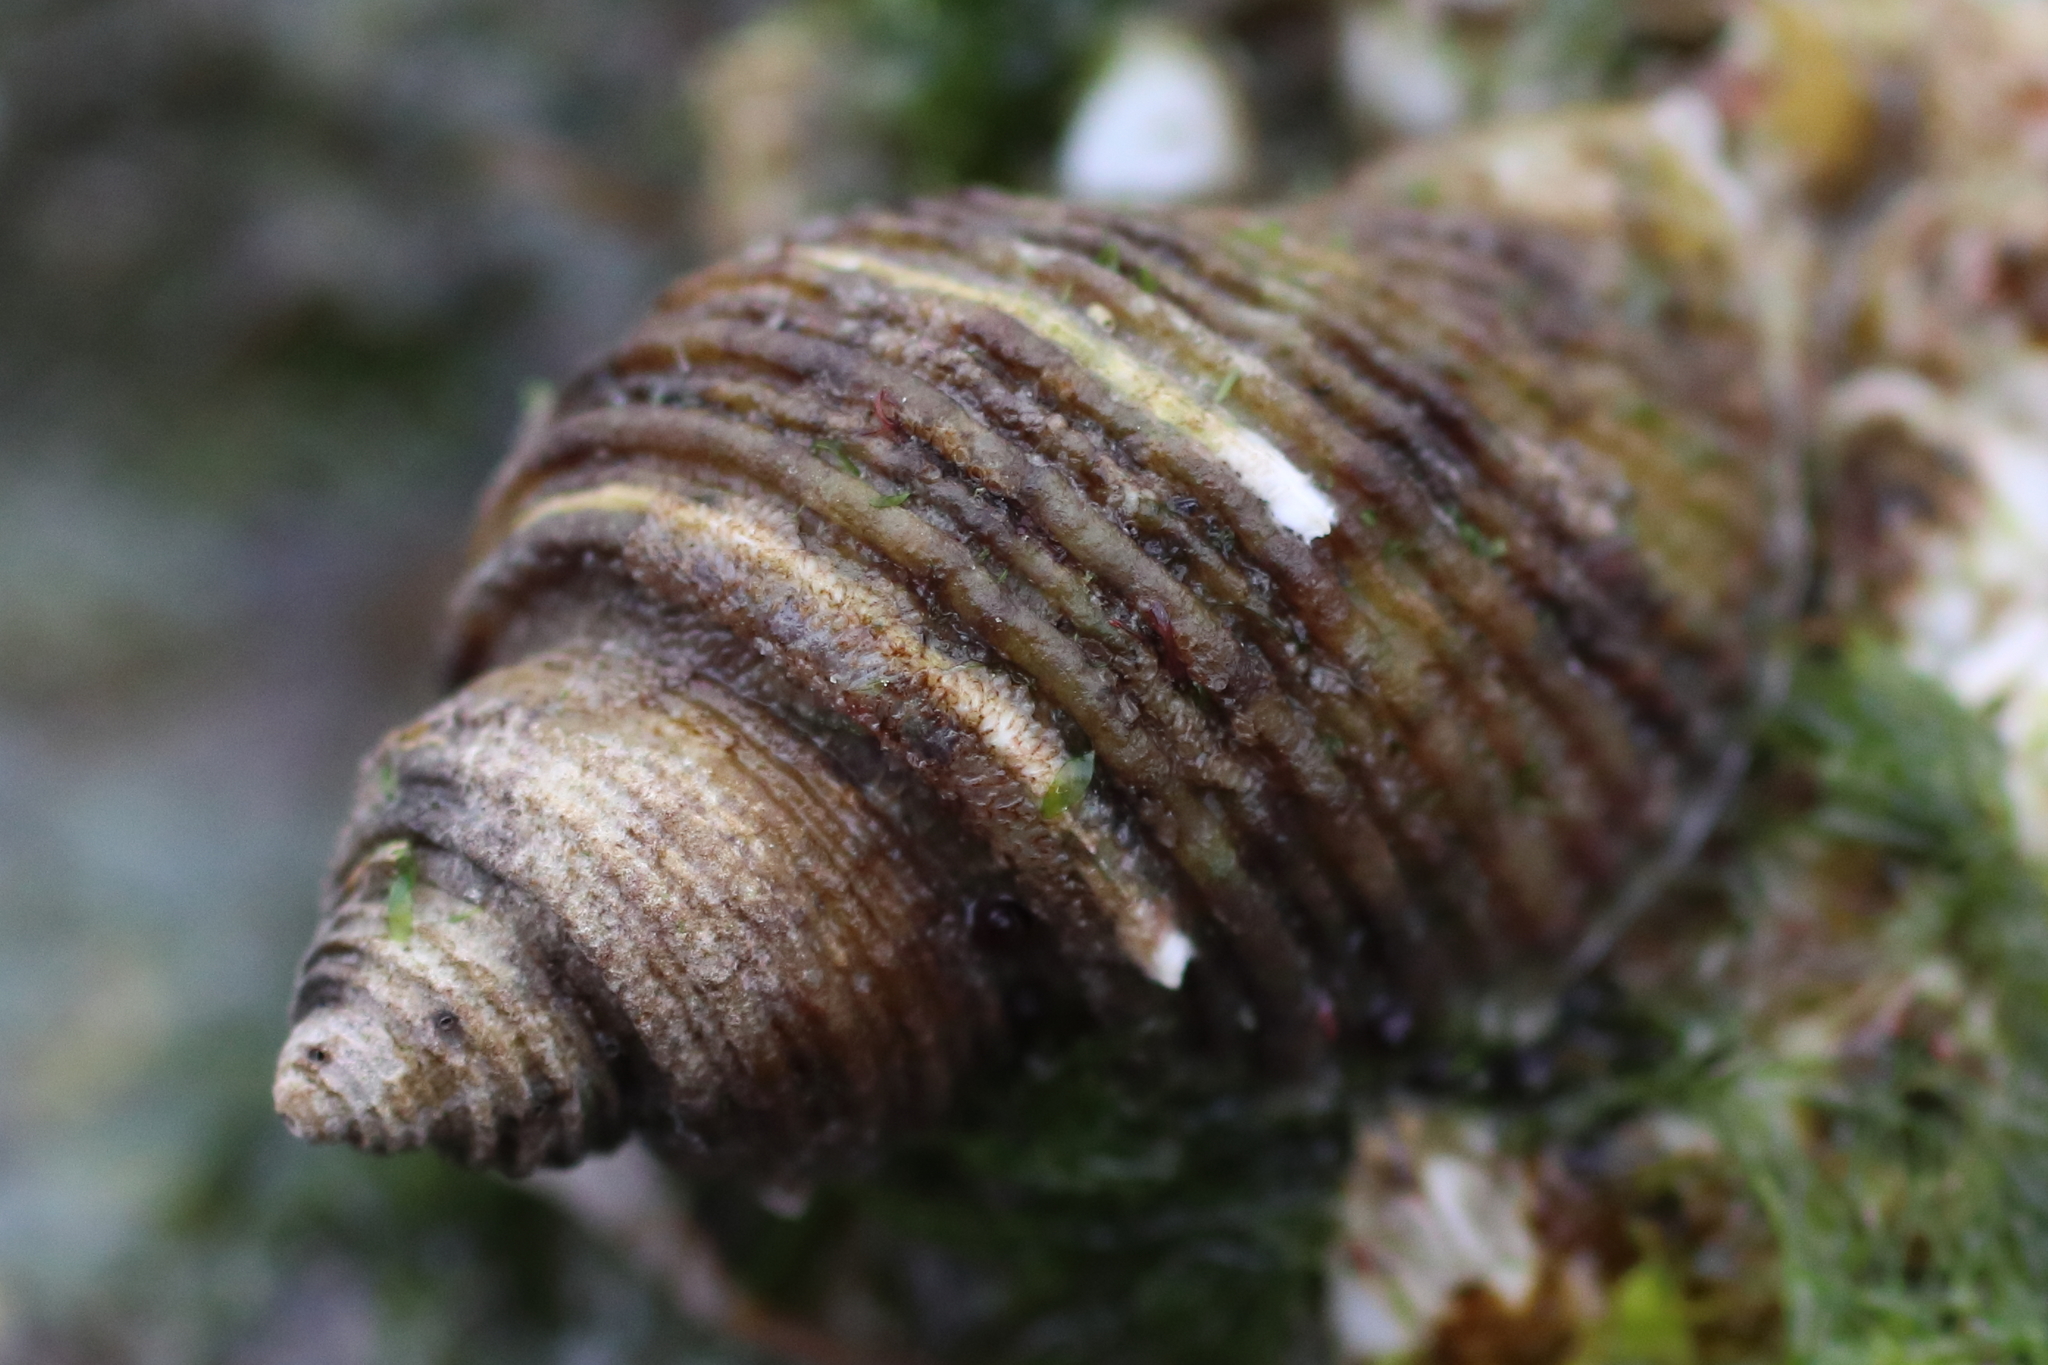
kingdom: Animalia
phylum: Mollusca
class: Gastropoda
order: Neogastropoda
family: Muricidae
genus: Nucella
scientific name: Nucella canaliculata
